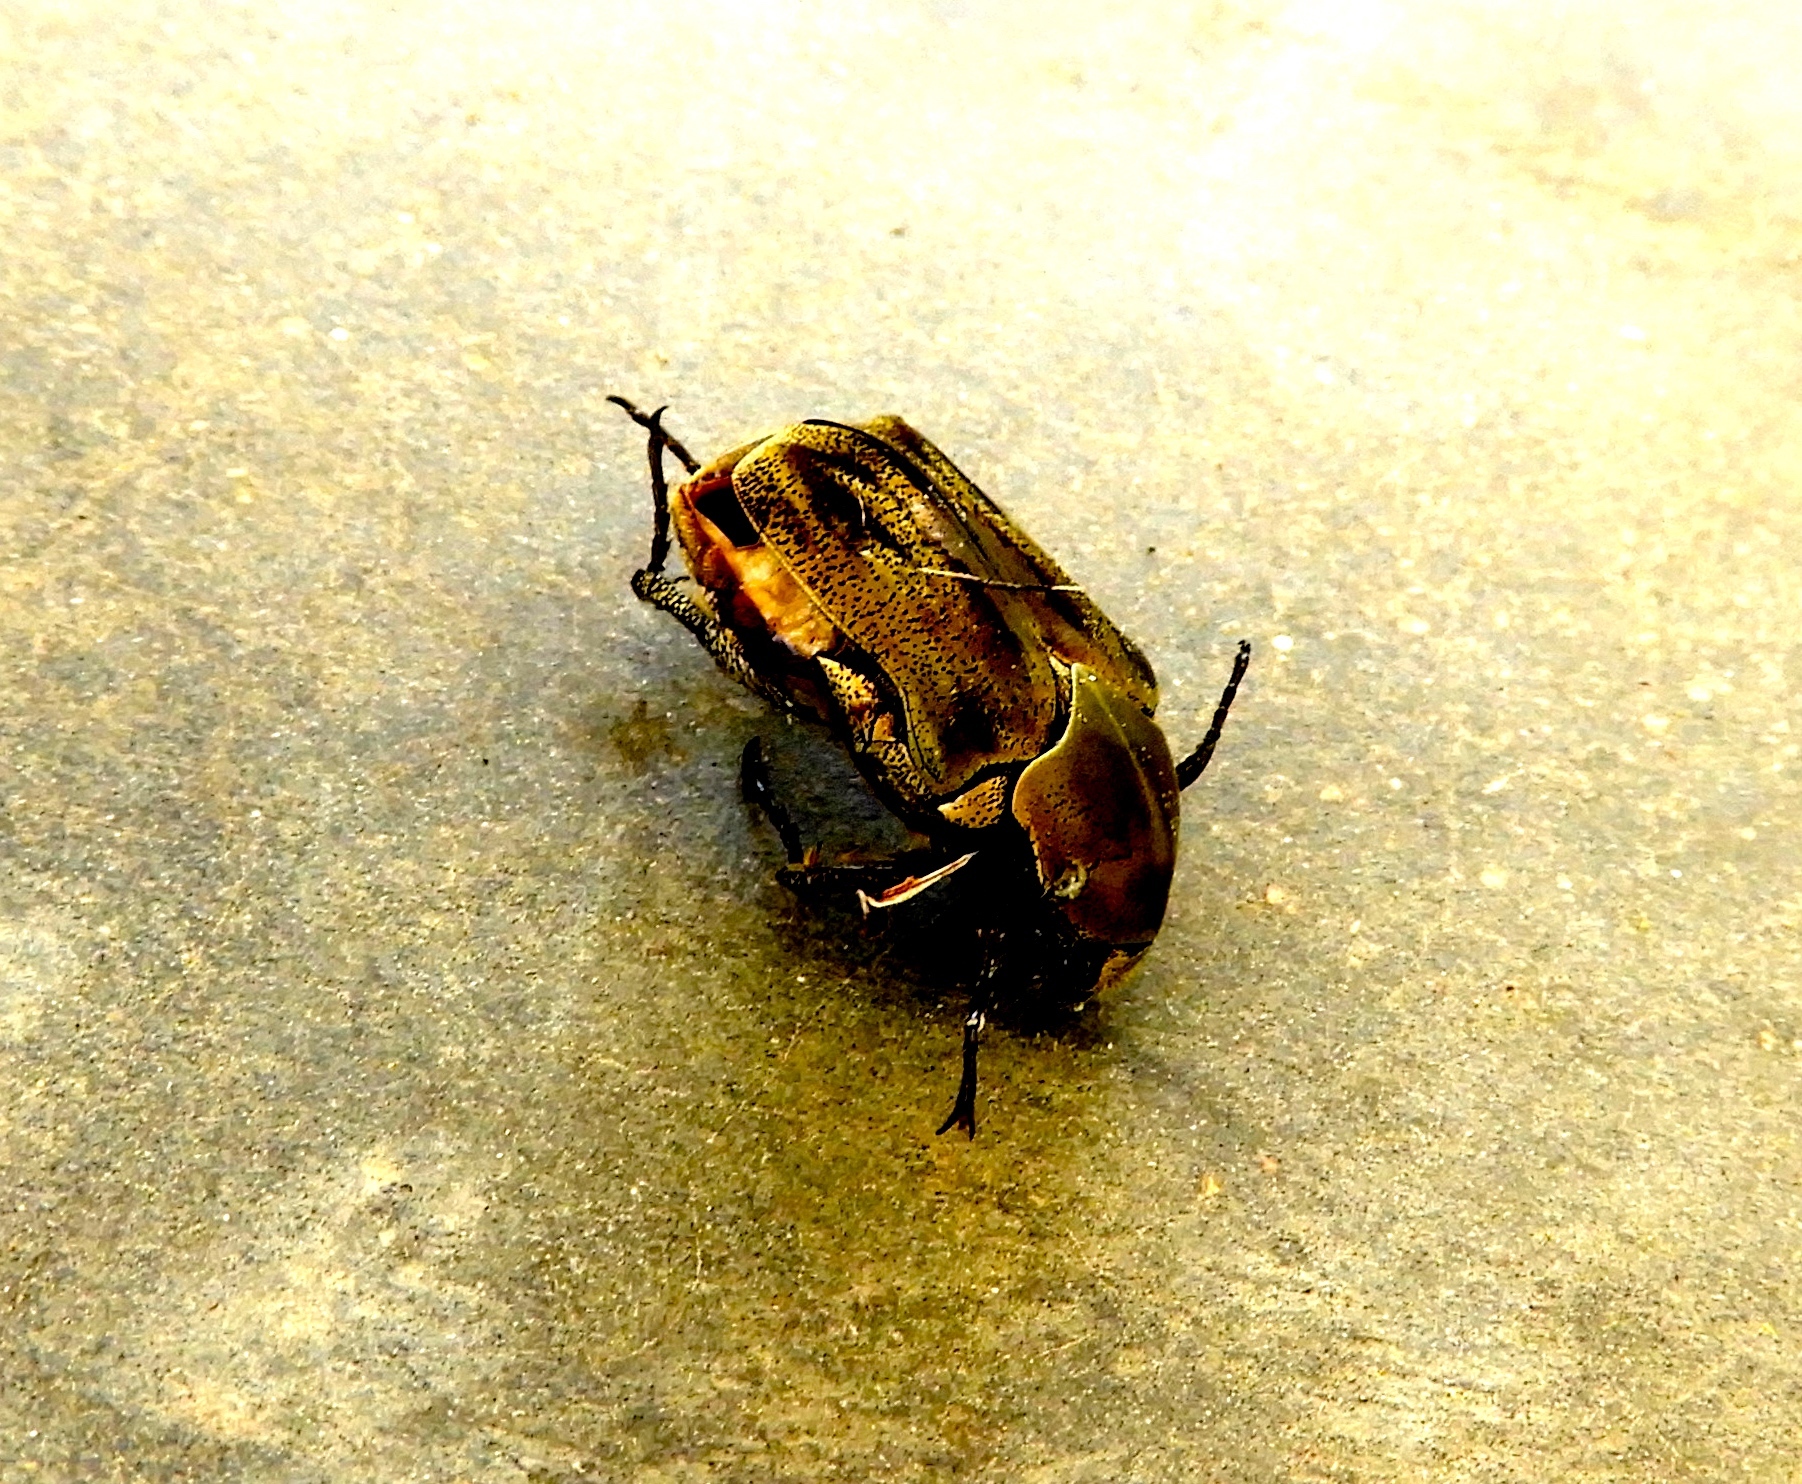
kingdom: Animalia
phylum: Arthropoda
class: Insecta
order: Coleoptera
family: Scarabaeidae
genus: Hologymnetis
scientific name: Hologymnetis margaritis
